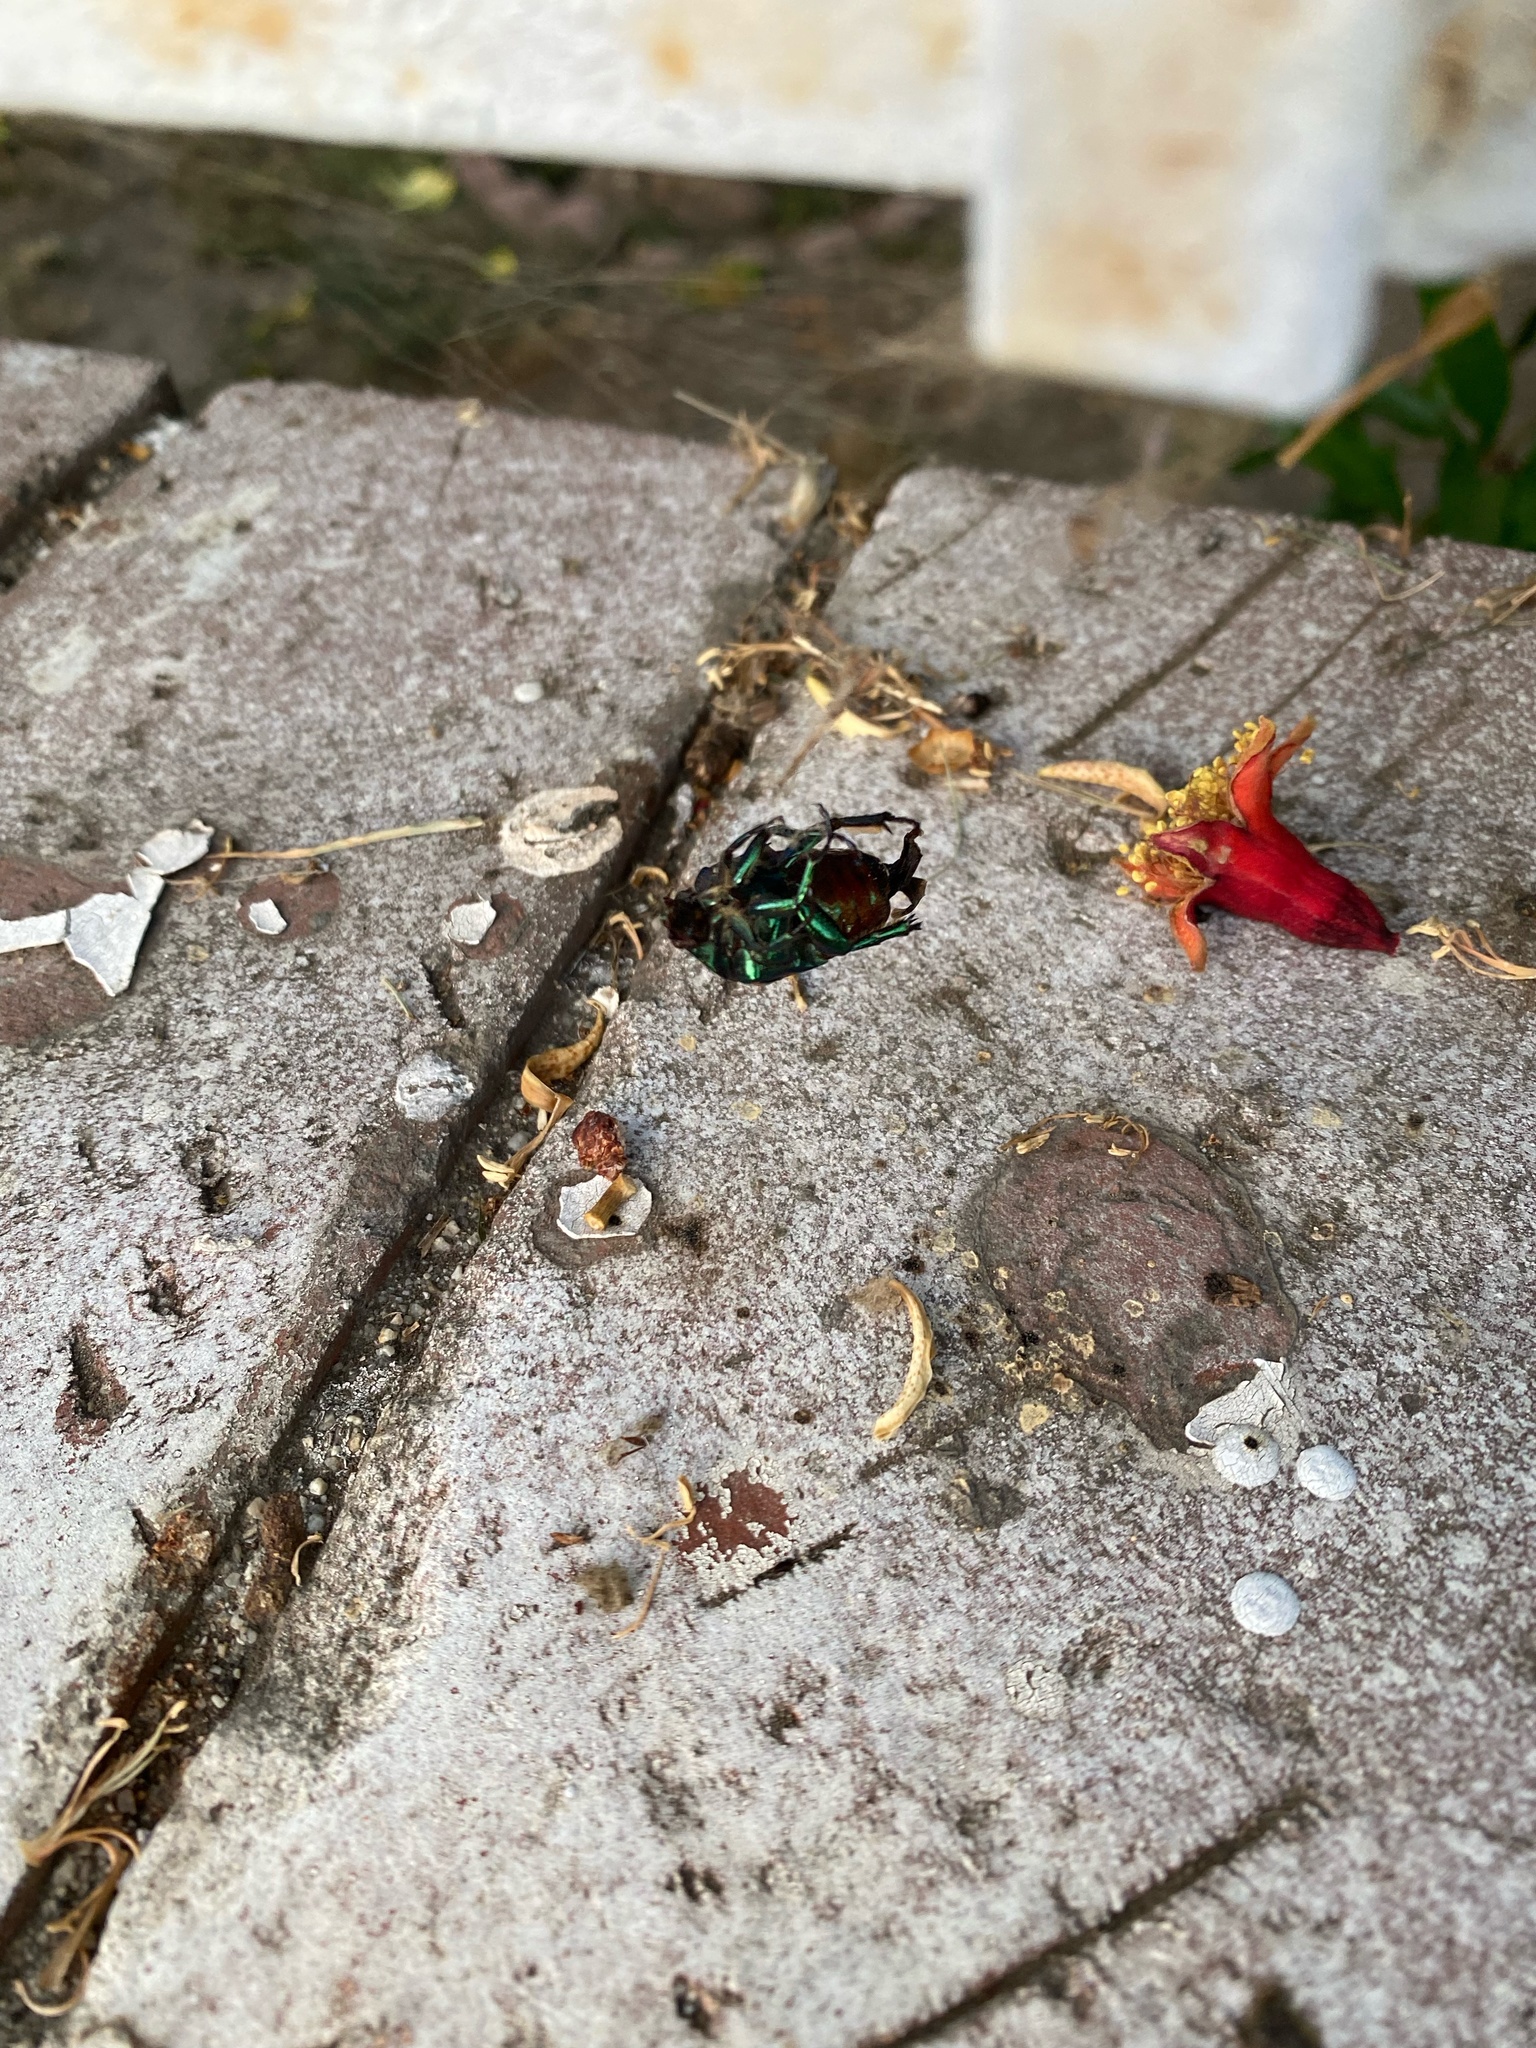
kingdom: Animalia
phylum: Arthropoda
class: Insecta
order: Coleoptera
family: Scarabaeidae
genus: Cotinis
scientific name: Cotinis mutabilis
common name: Figeater beetle
